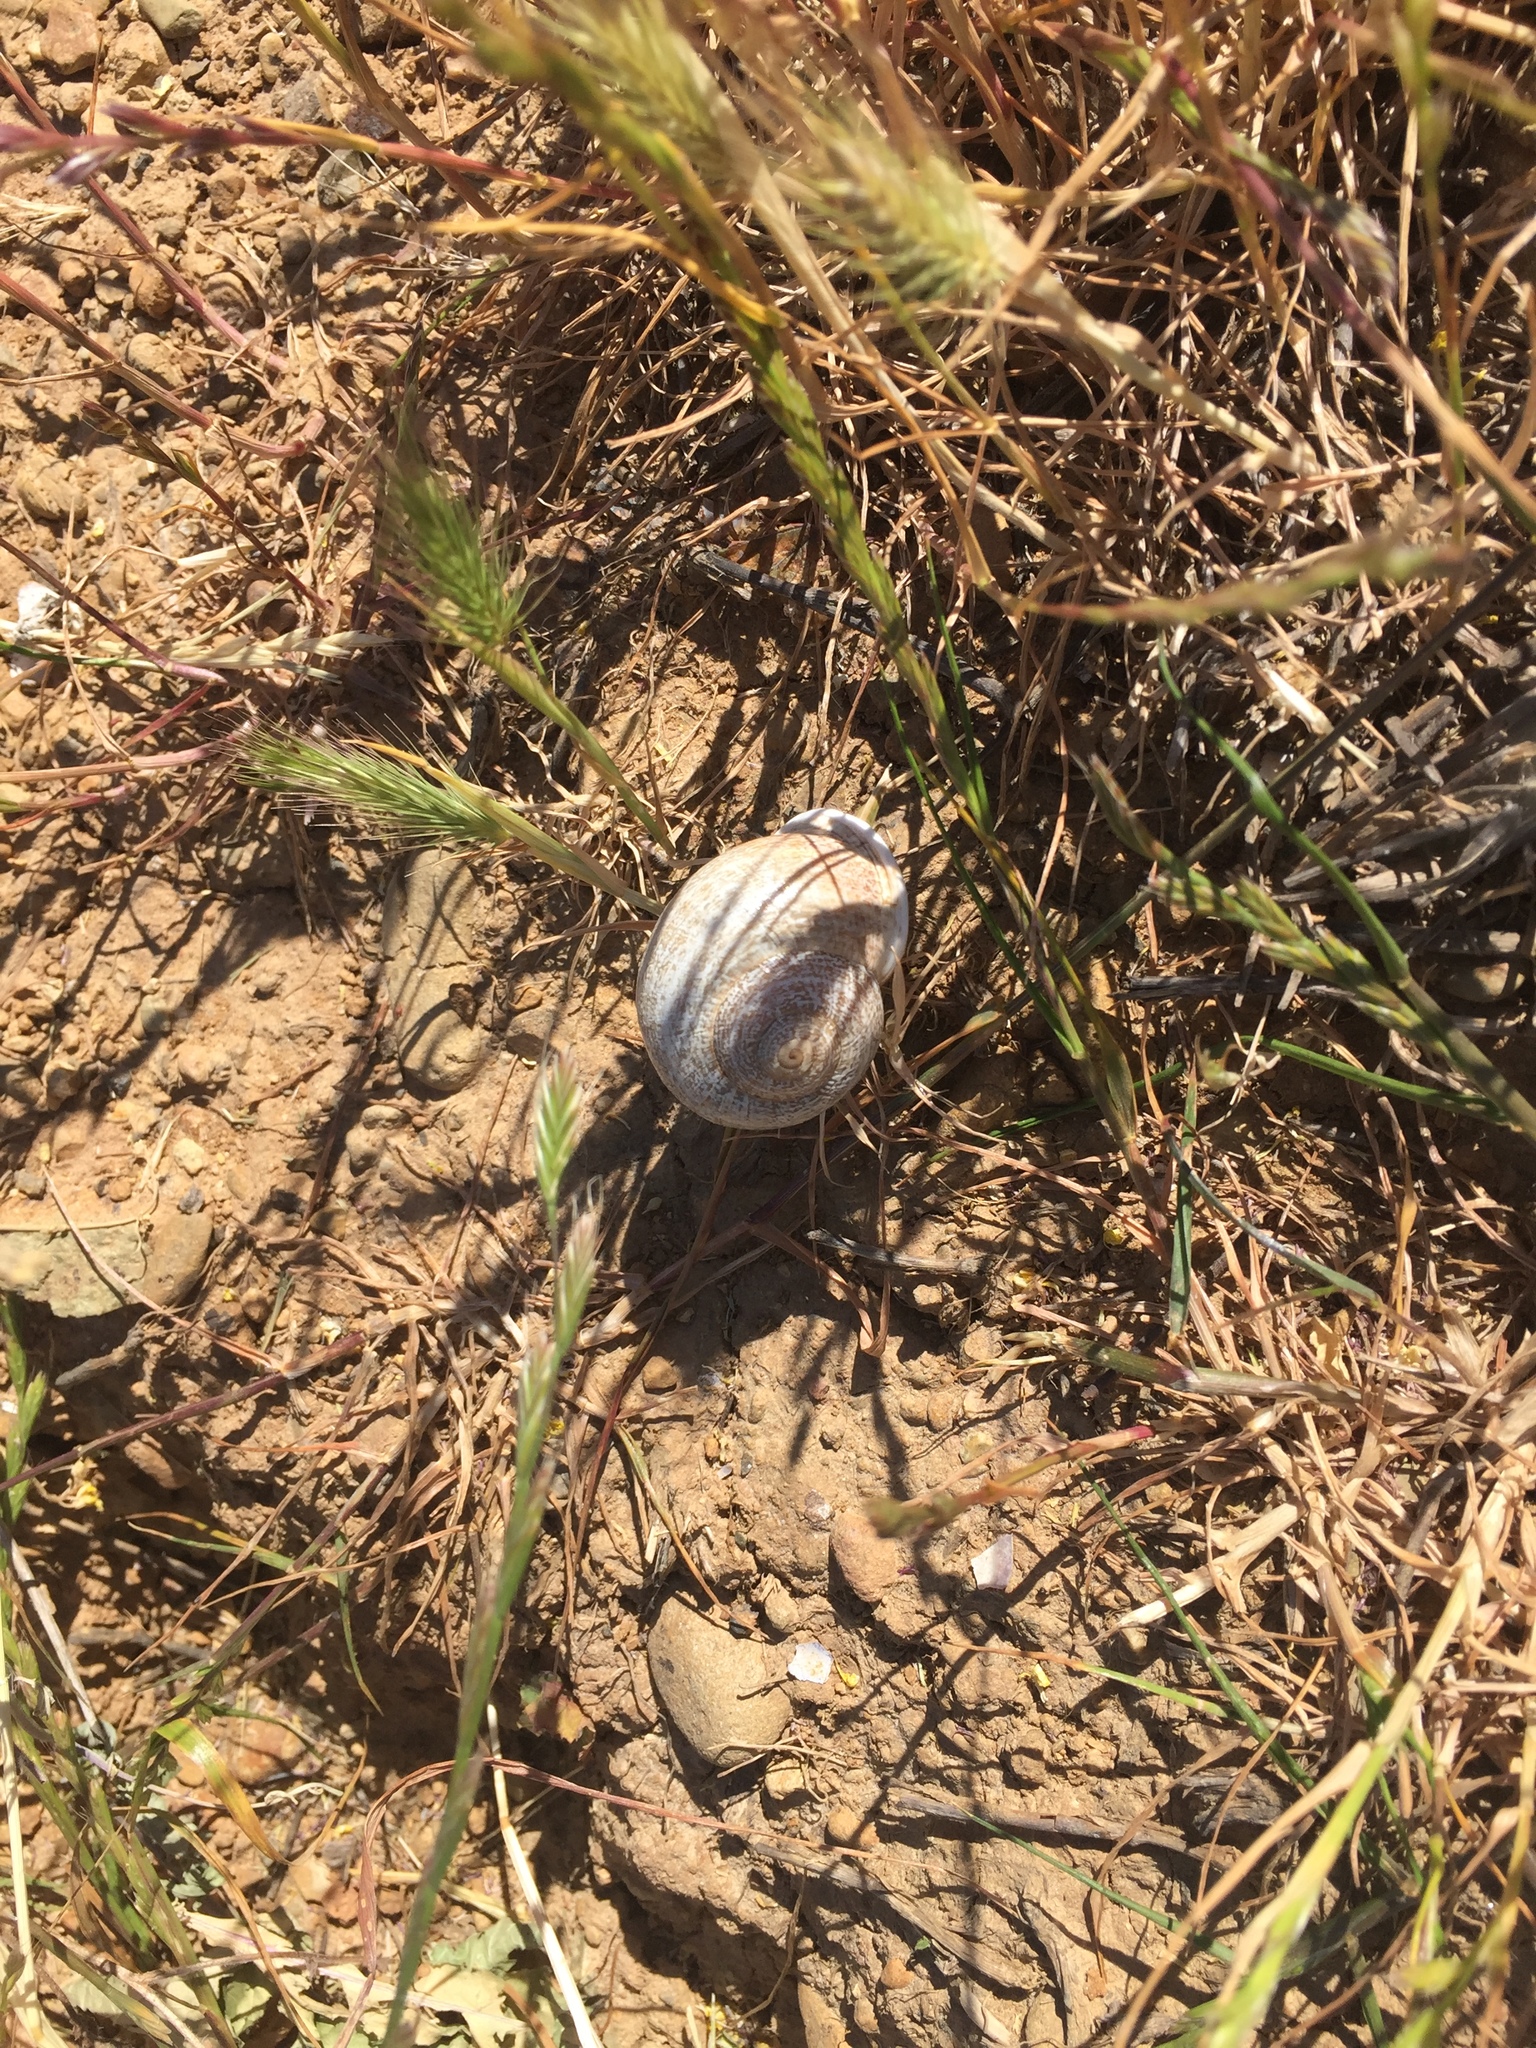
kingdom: Animalia
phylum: Mollusca
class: Gastropoda
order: Stylommatophora
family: Helicidae
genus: Otala
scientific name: Otala lactea
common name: Milk snail
